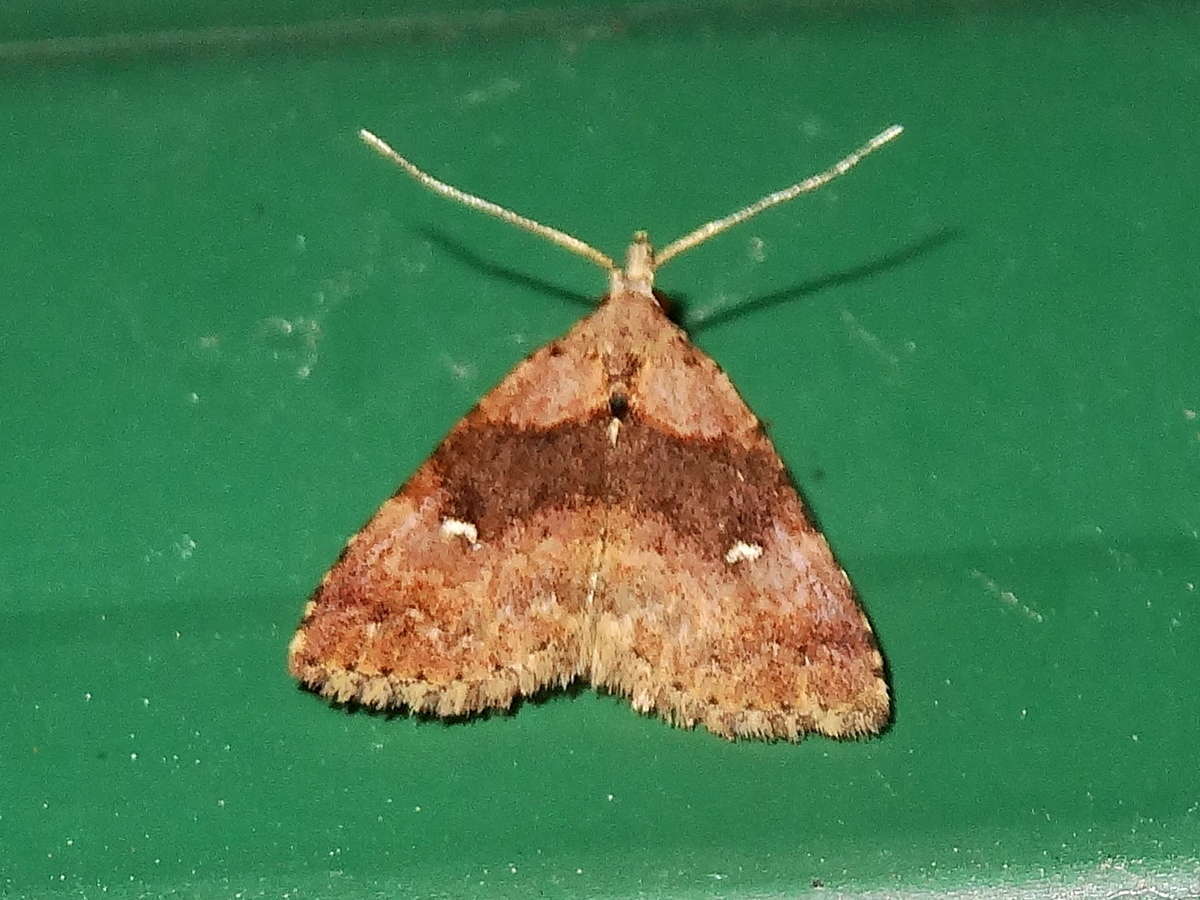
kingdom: Animalia
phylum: Arthropoda
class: Insecta
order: Lepidoptera
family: Erebidae
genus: Alapadna
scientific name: Alapadna pauropis
